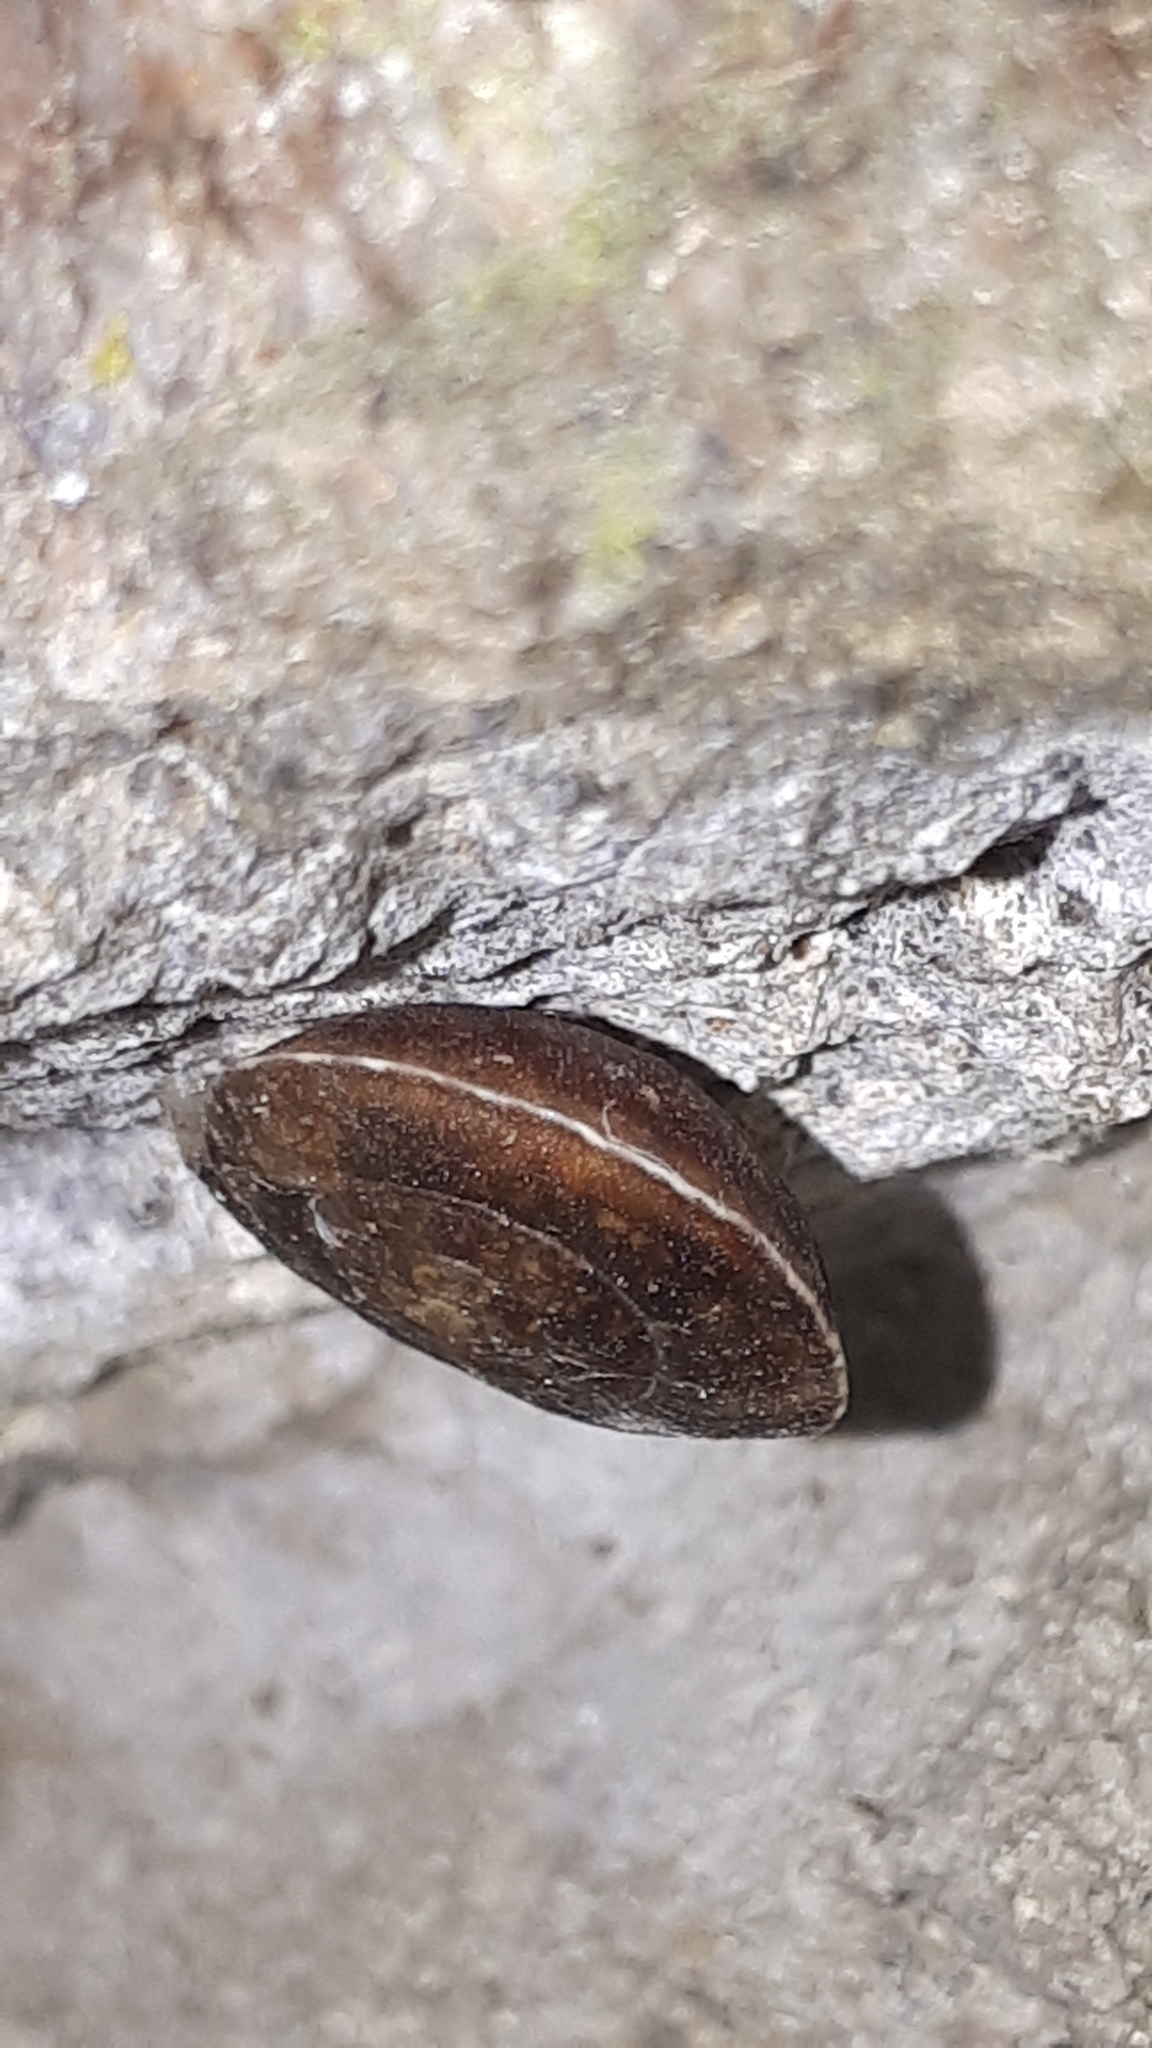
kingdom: Animalia
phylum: Mollusca
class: Gastropoda
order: Stylommatophora
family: Helicidae
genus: Helicigona
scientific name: Helicigona lapicida
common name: Lapidary snail
